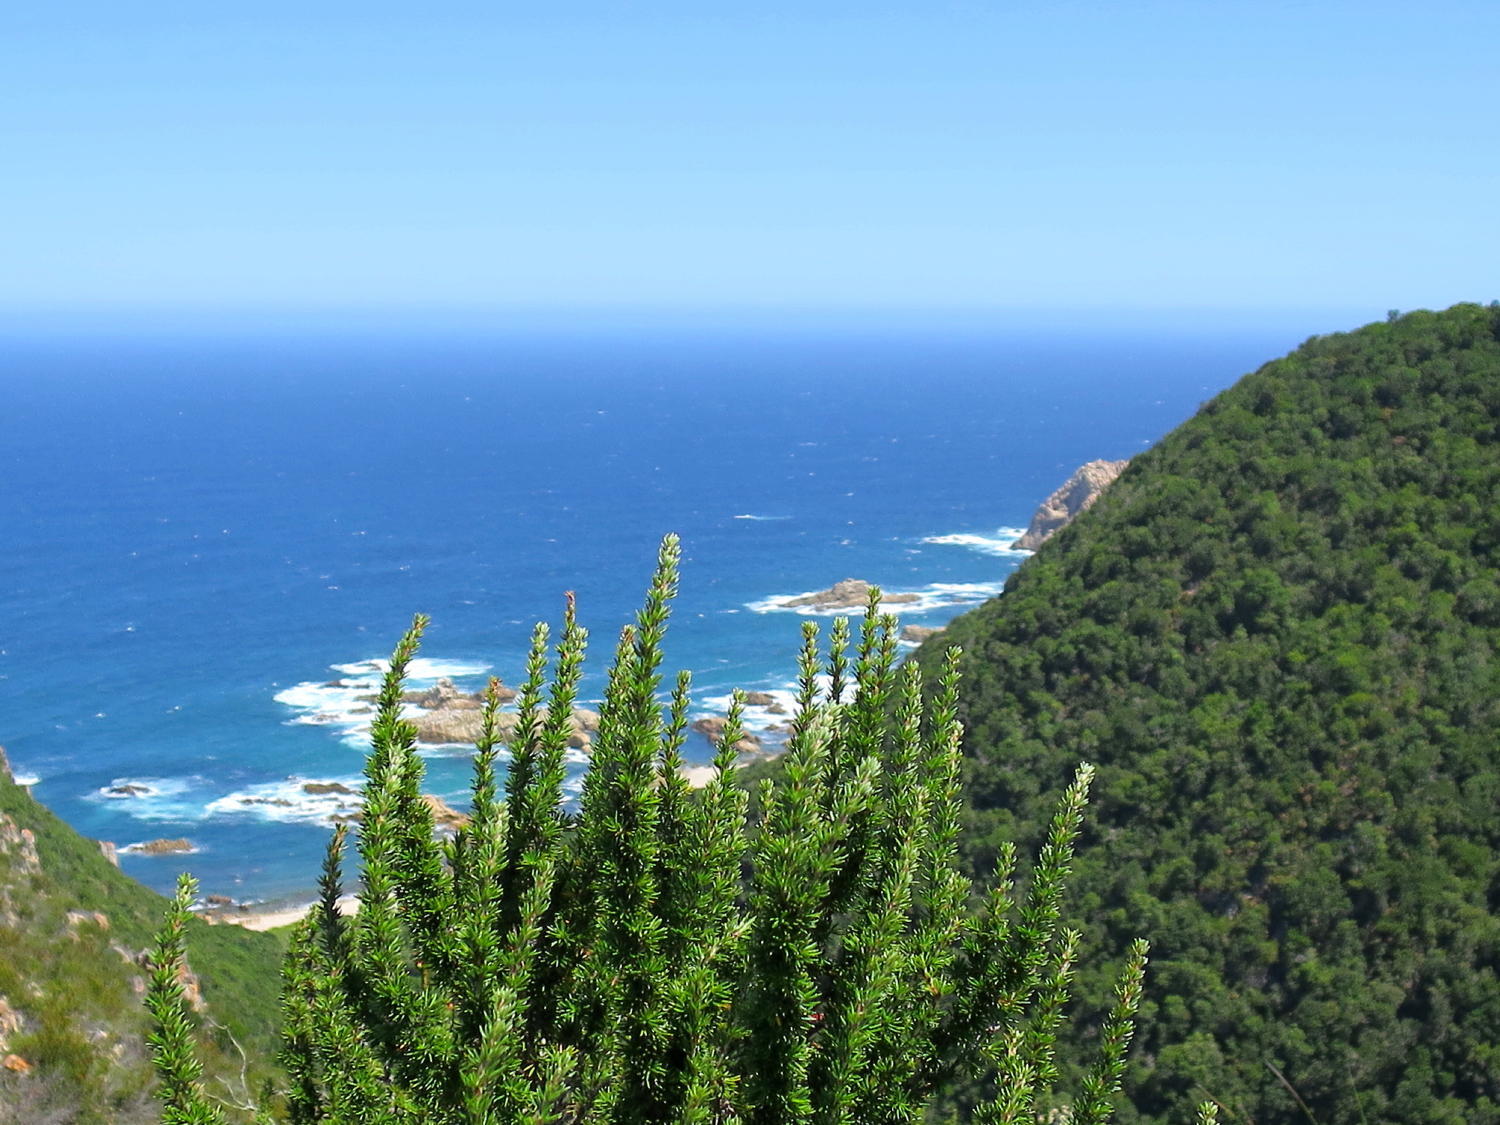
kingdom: Plantae
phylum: Tracheophyta
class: Magnoliopsida
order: Rosales
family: Rosaceae
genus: Cliffortia
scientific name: Cliffortia stricta
